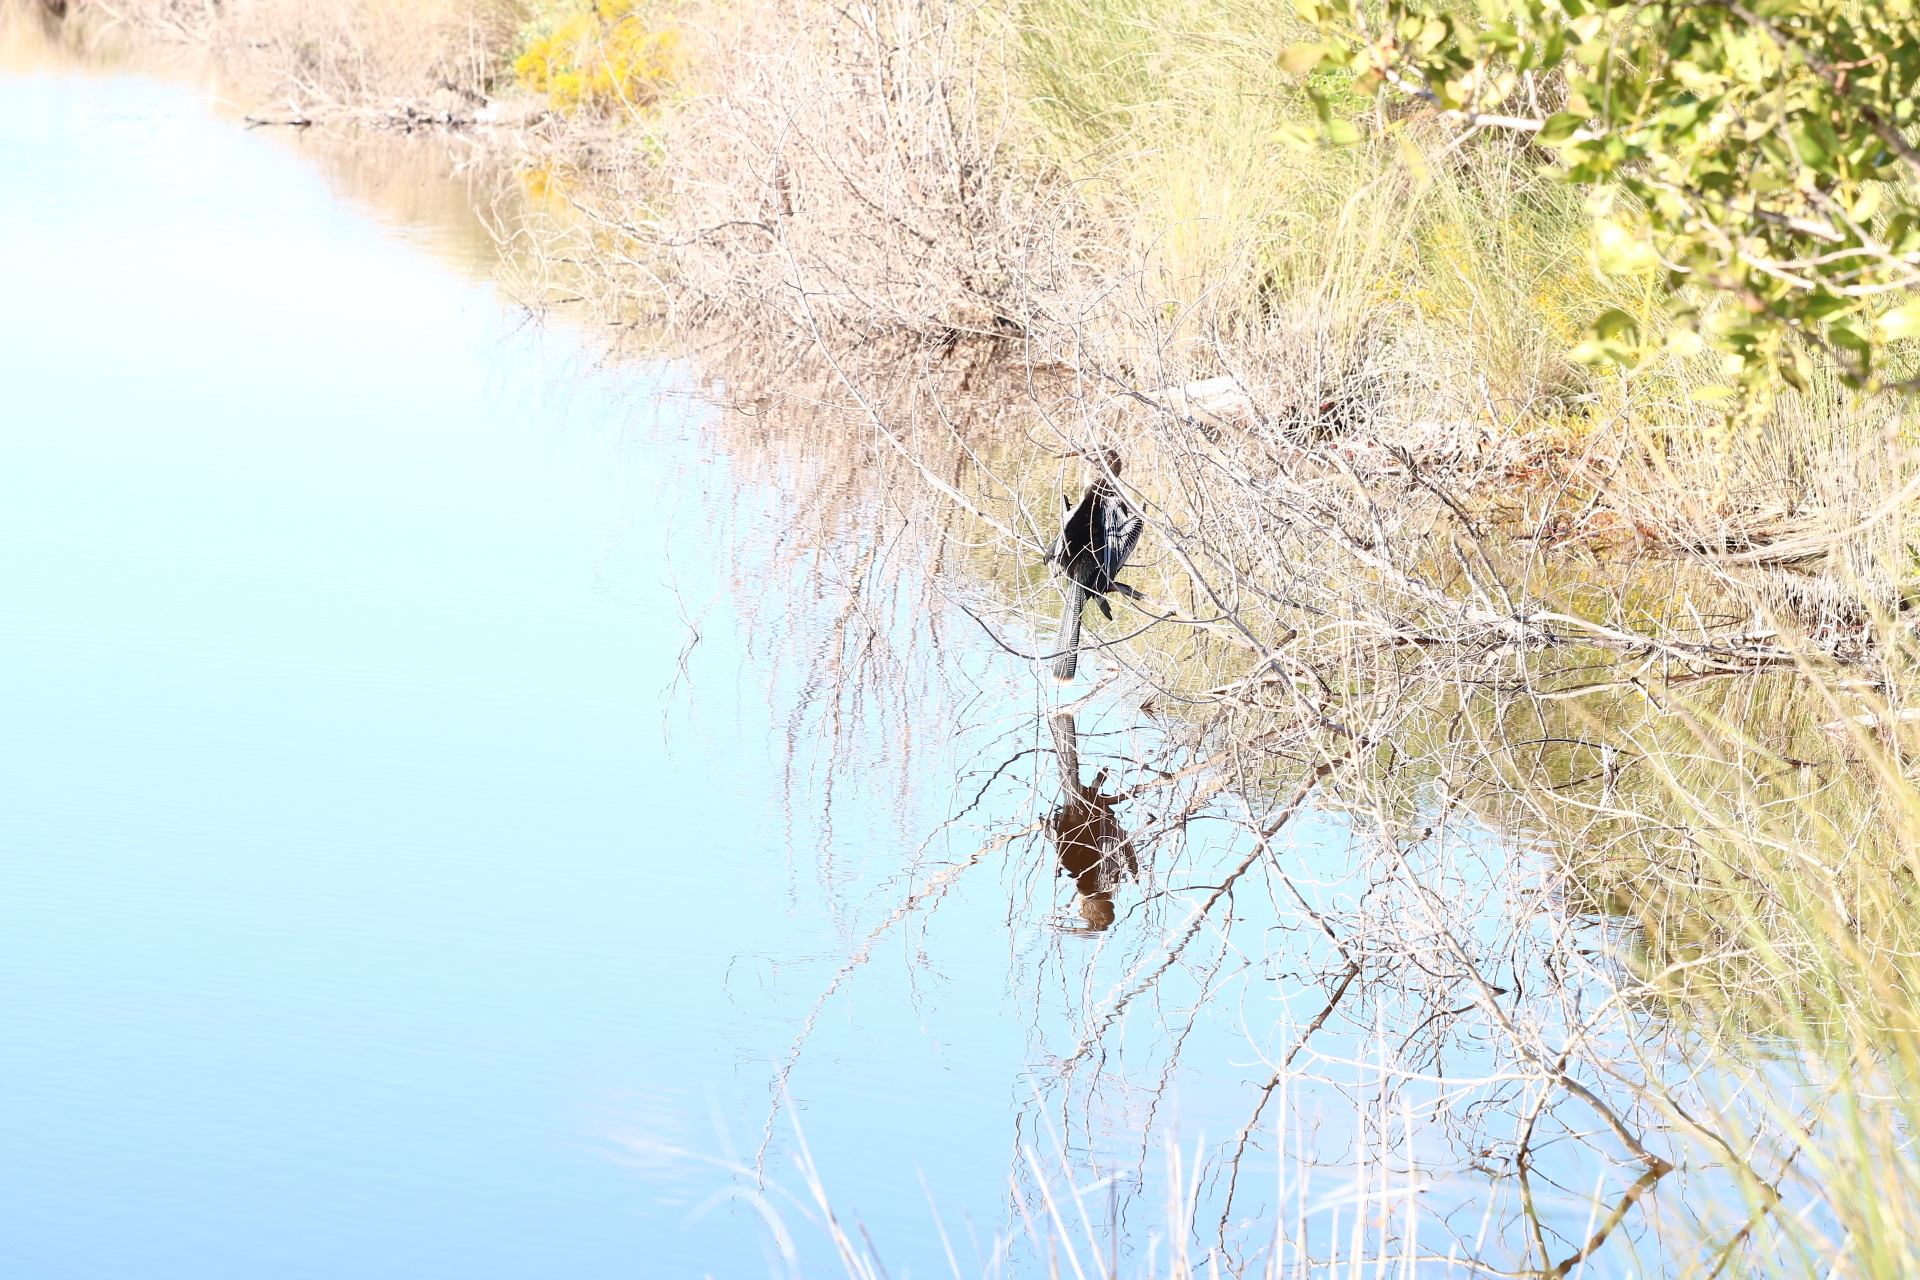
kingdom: Animalia
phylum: Chordata
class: Aves
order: Suliformes
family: Anhingidae
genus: Anhinga
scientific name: Anhinga anhinga
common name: Anhinga
